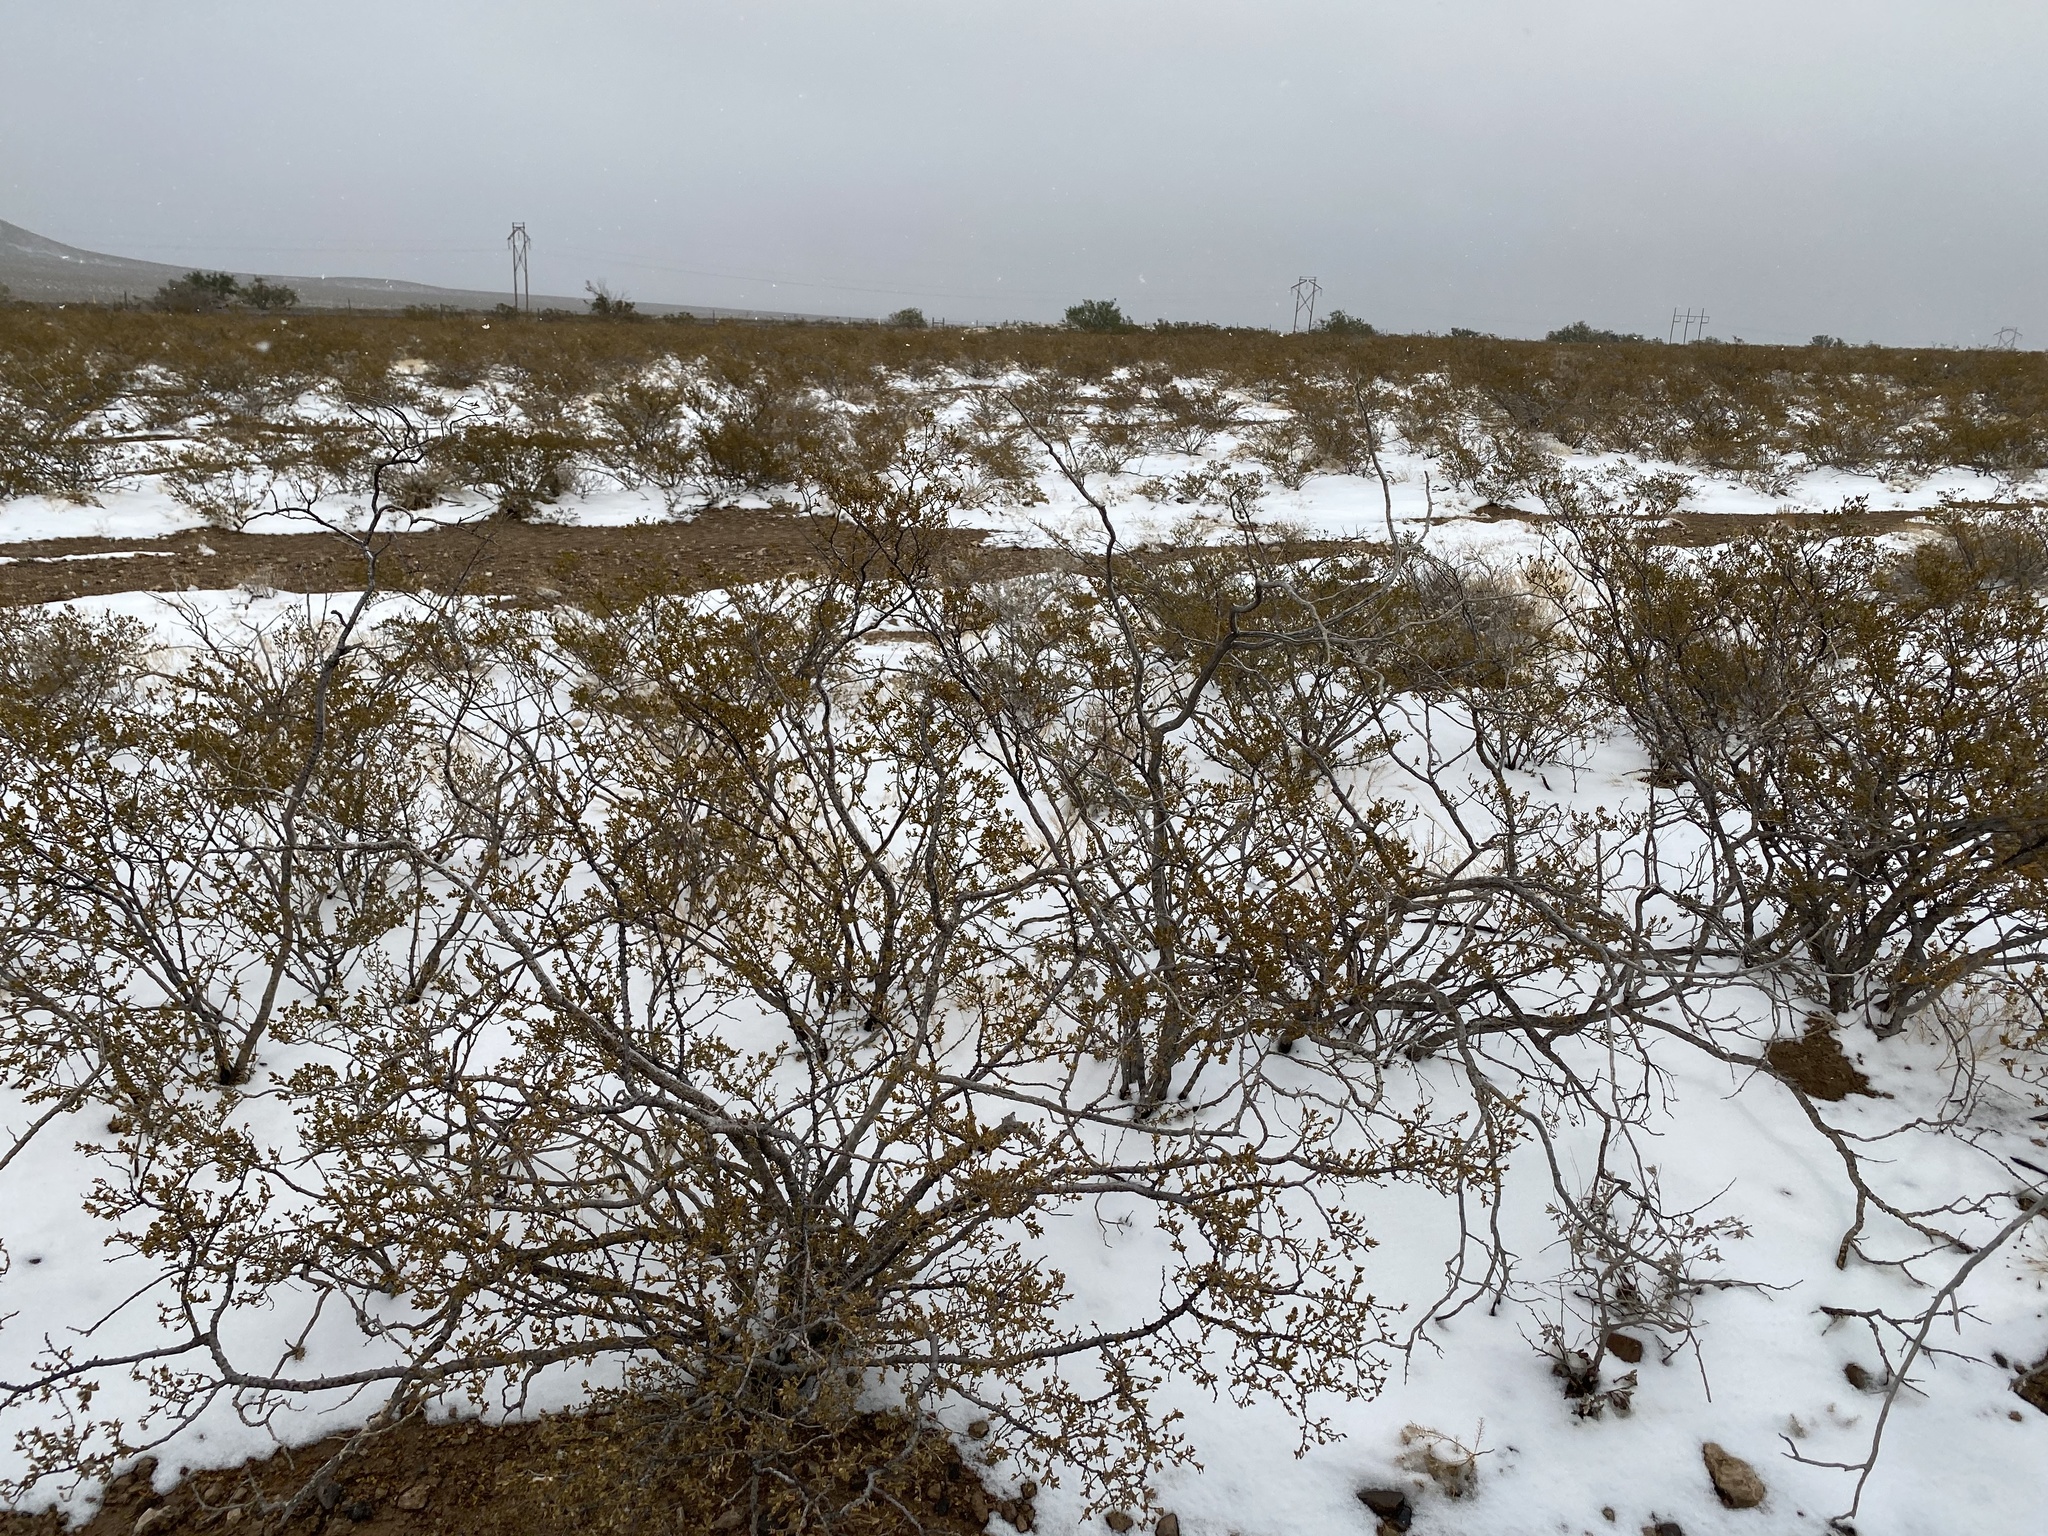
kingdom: Plantae
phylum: Tracheophyta
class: Magnoliopsida
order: Zygophyllales
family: Zygophyllaceae
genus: Larrea
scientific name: Larrea tridentata
